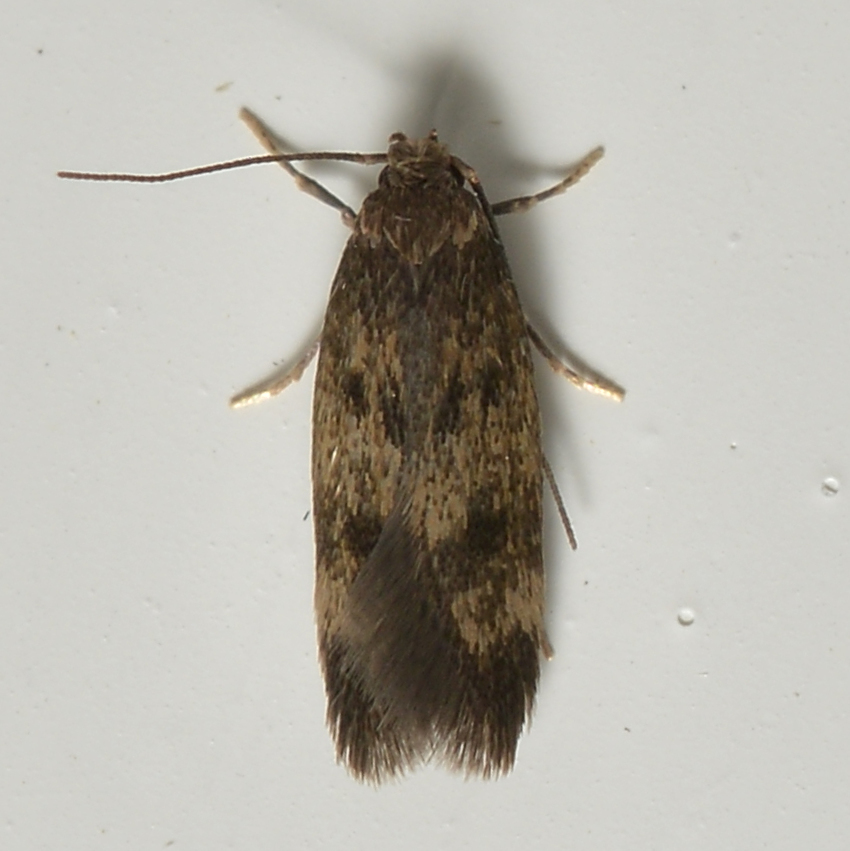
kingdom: Animalia
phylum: Arthropoda
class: Insecta
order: Lepidoptera
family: Oecophoridae
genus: Borkhausenia
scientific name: Borkhausenia fuscescens
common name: Small dingy tubic
